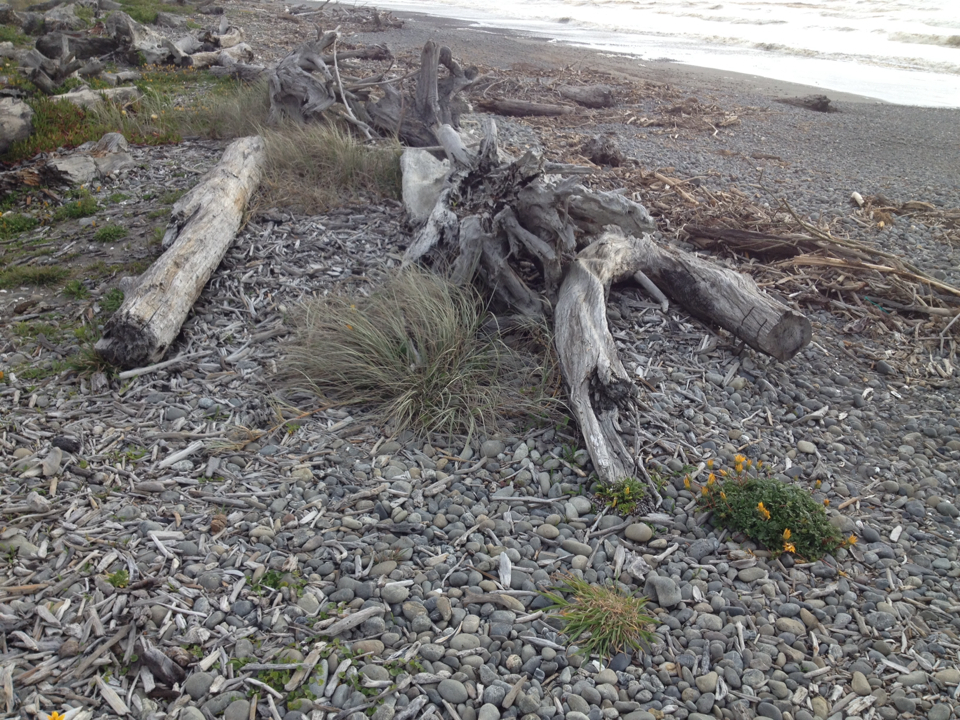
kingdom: Plantae
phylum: Tracheophyta
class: Liliopsida
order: Poales
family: Poaceae
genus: Spinifex
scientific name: Spinifex sericeus
